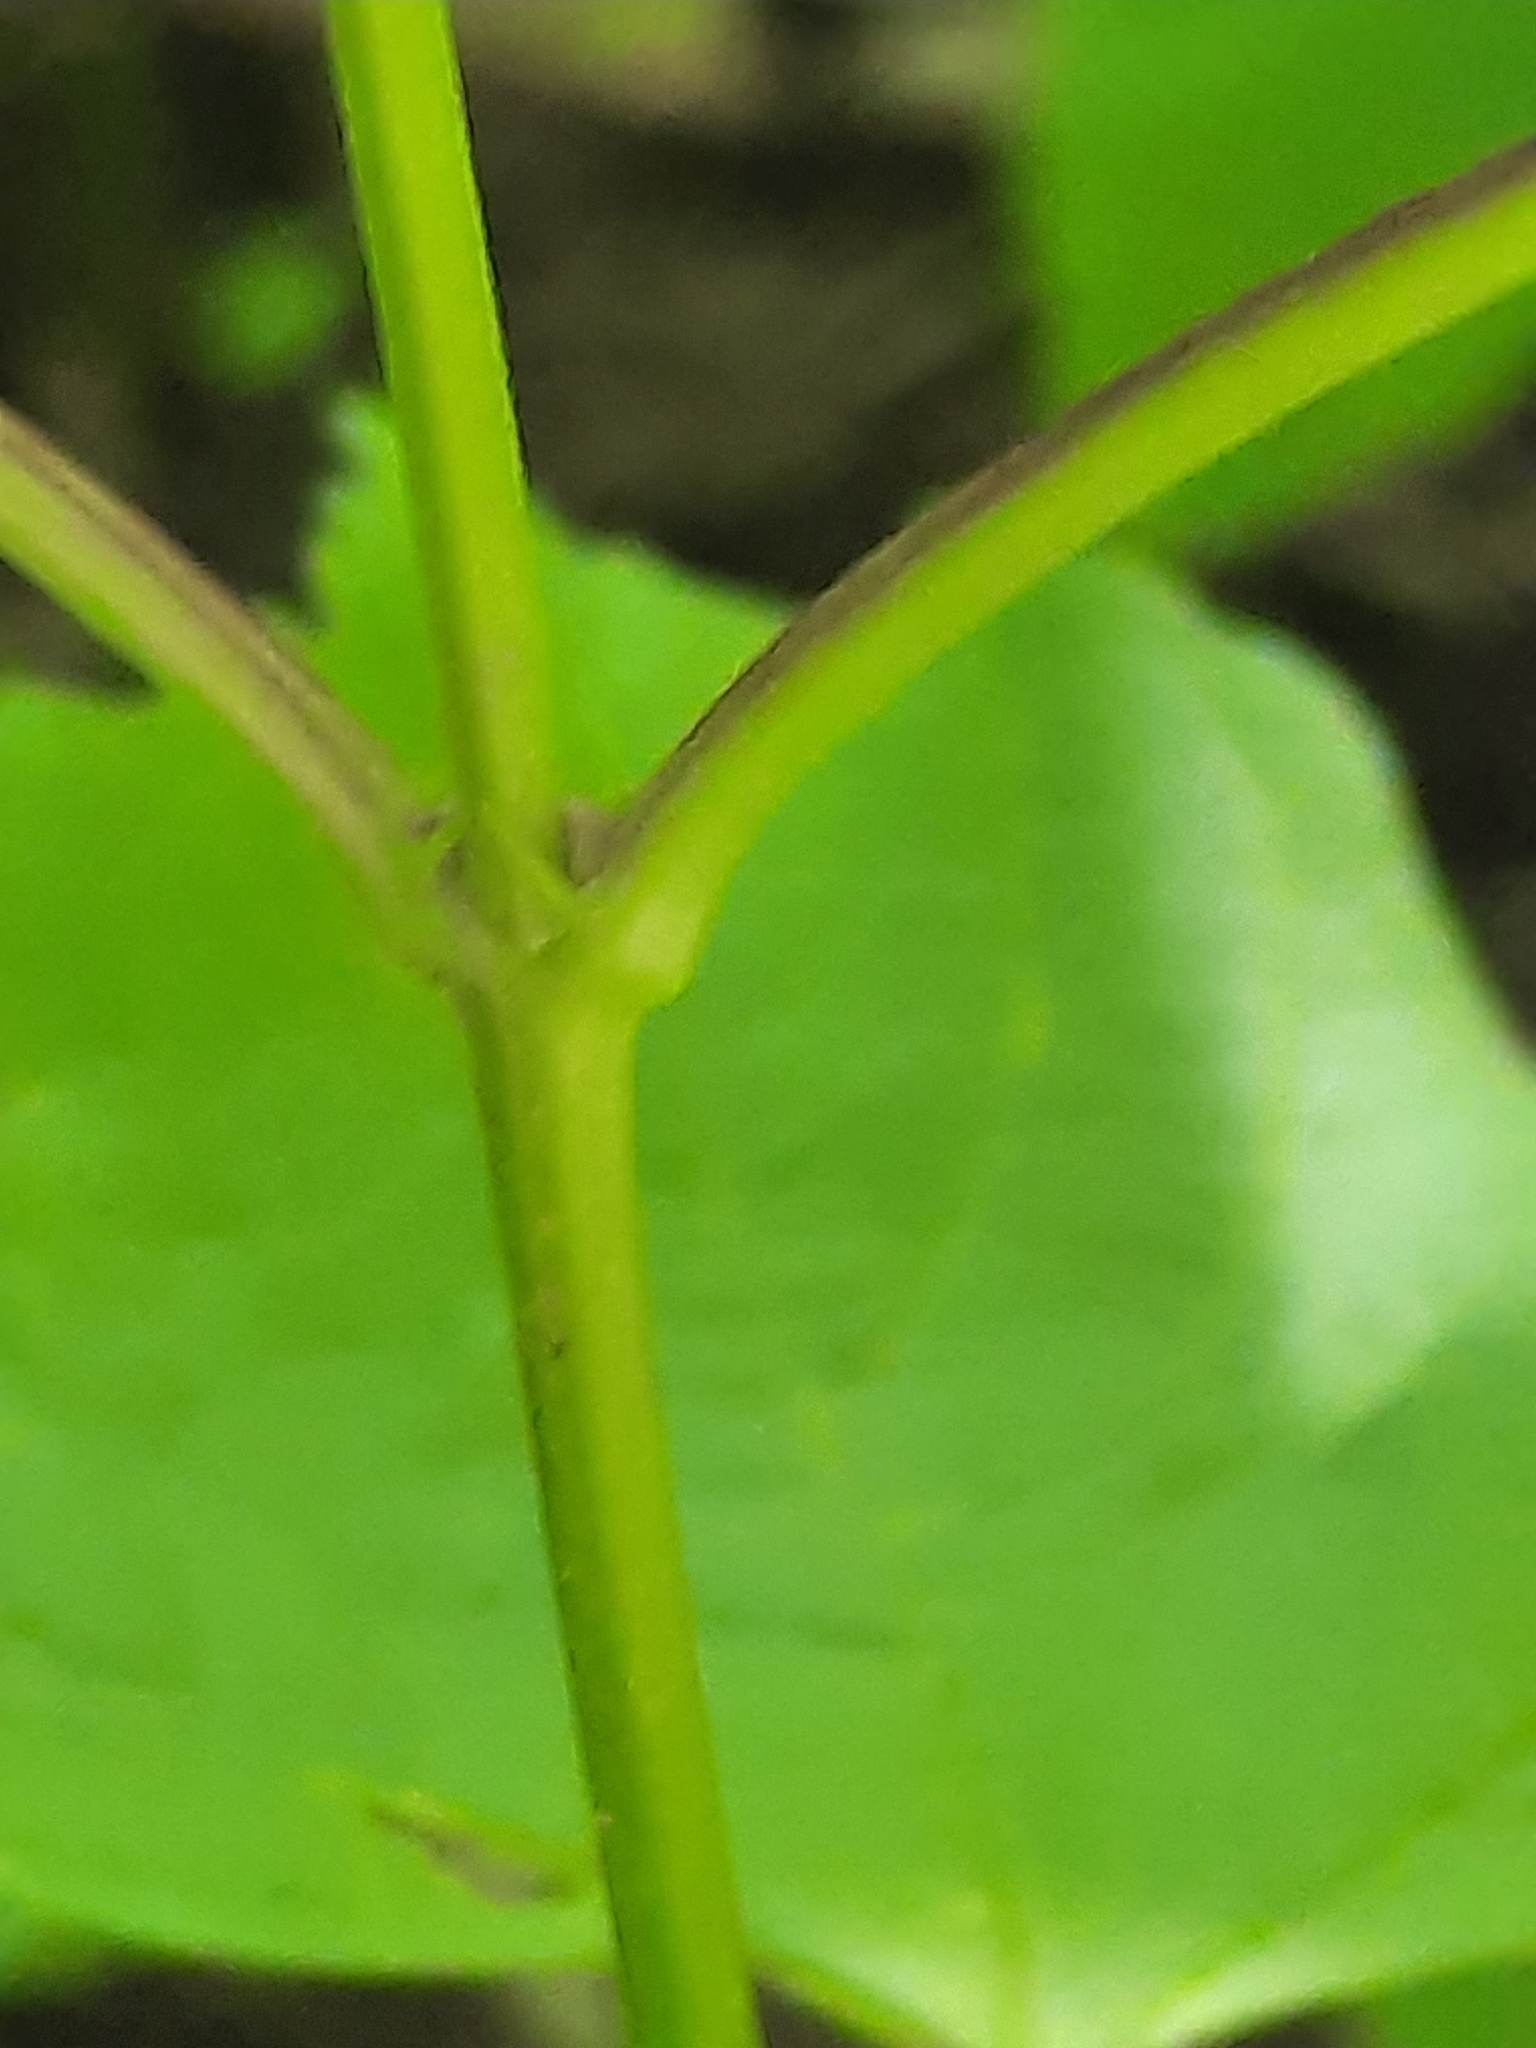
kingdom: Plantae
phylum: Tracheophyta
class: Magnoliopsida
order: Dipsacales
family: Viburnaceae
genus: Viburnum
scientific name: Viburnum opulus
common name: Guelder-rose
